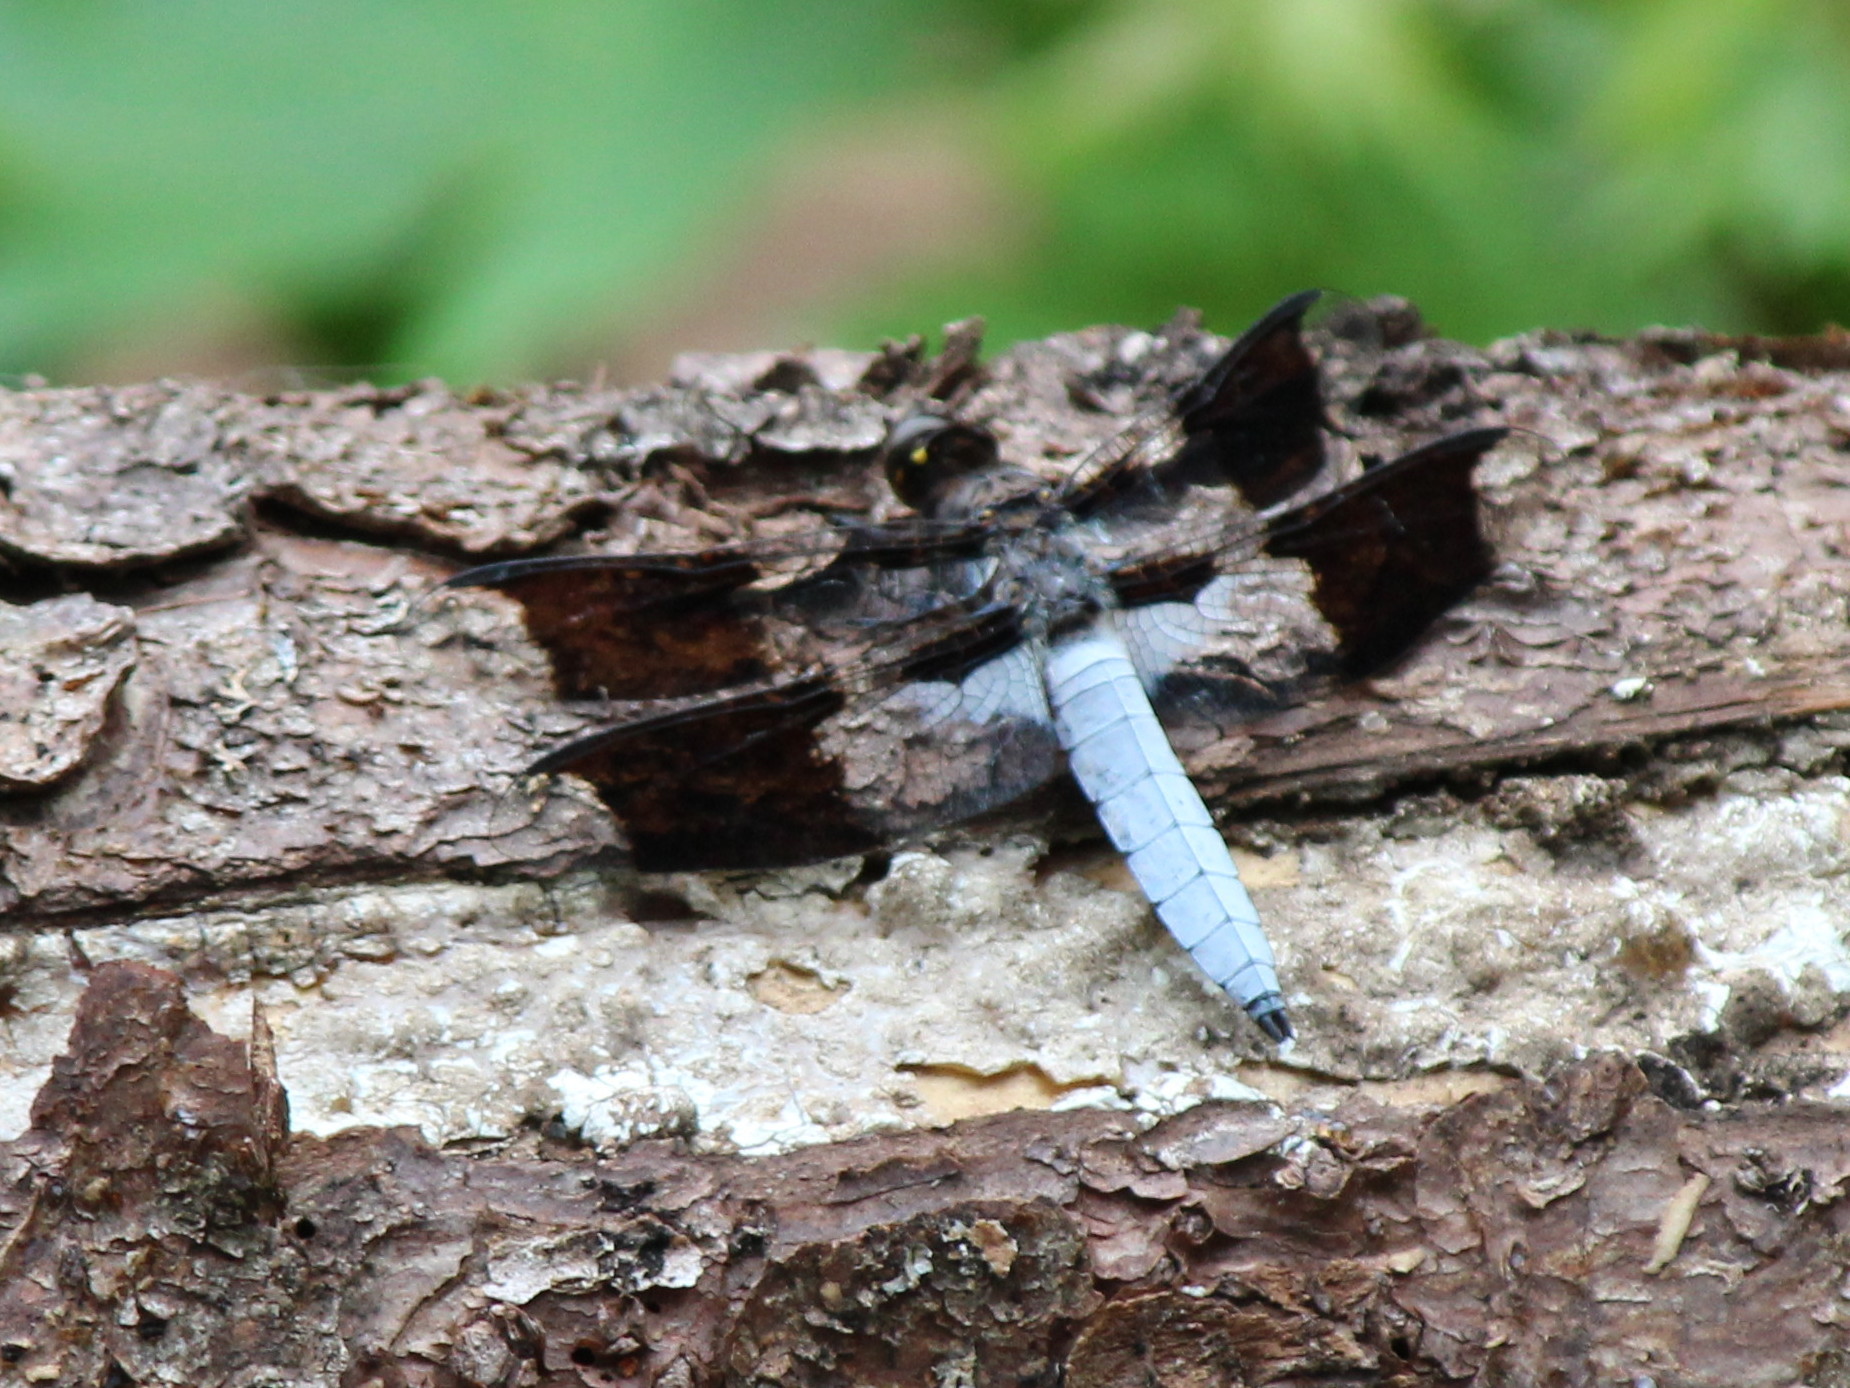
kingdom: Animalia
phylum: Arthropoda
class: Insecta
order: Odonata
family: Libellulidae
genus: Plathemis
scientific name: Plathemis lydia
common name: Common whitetail
